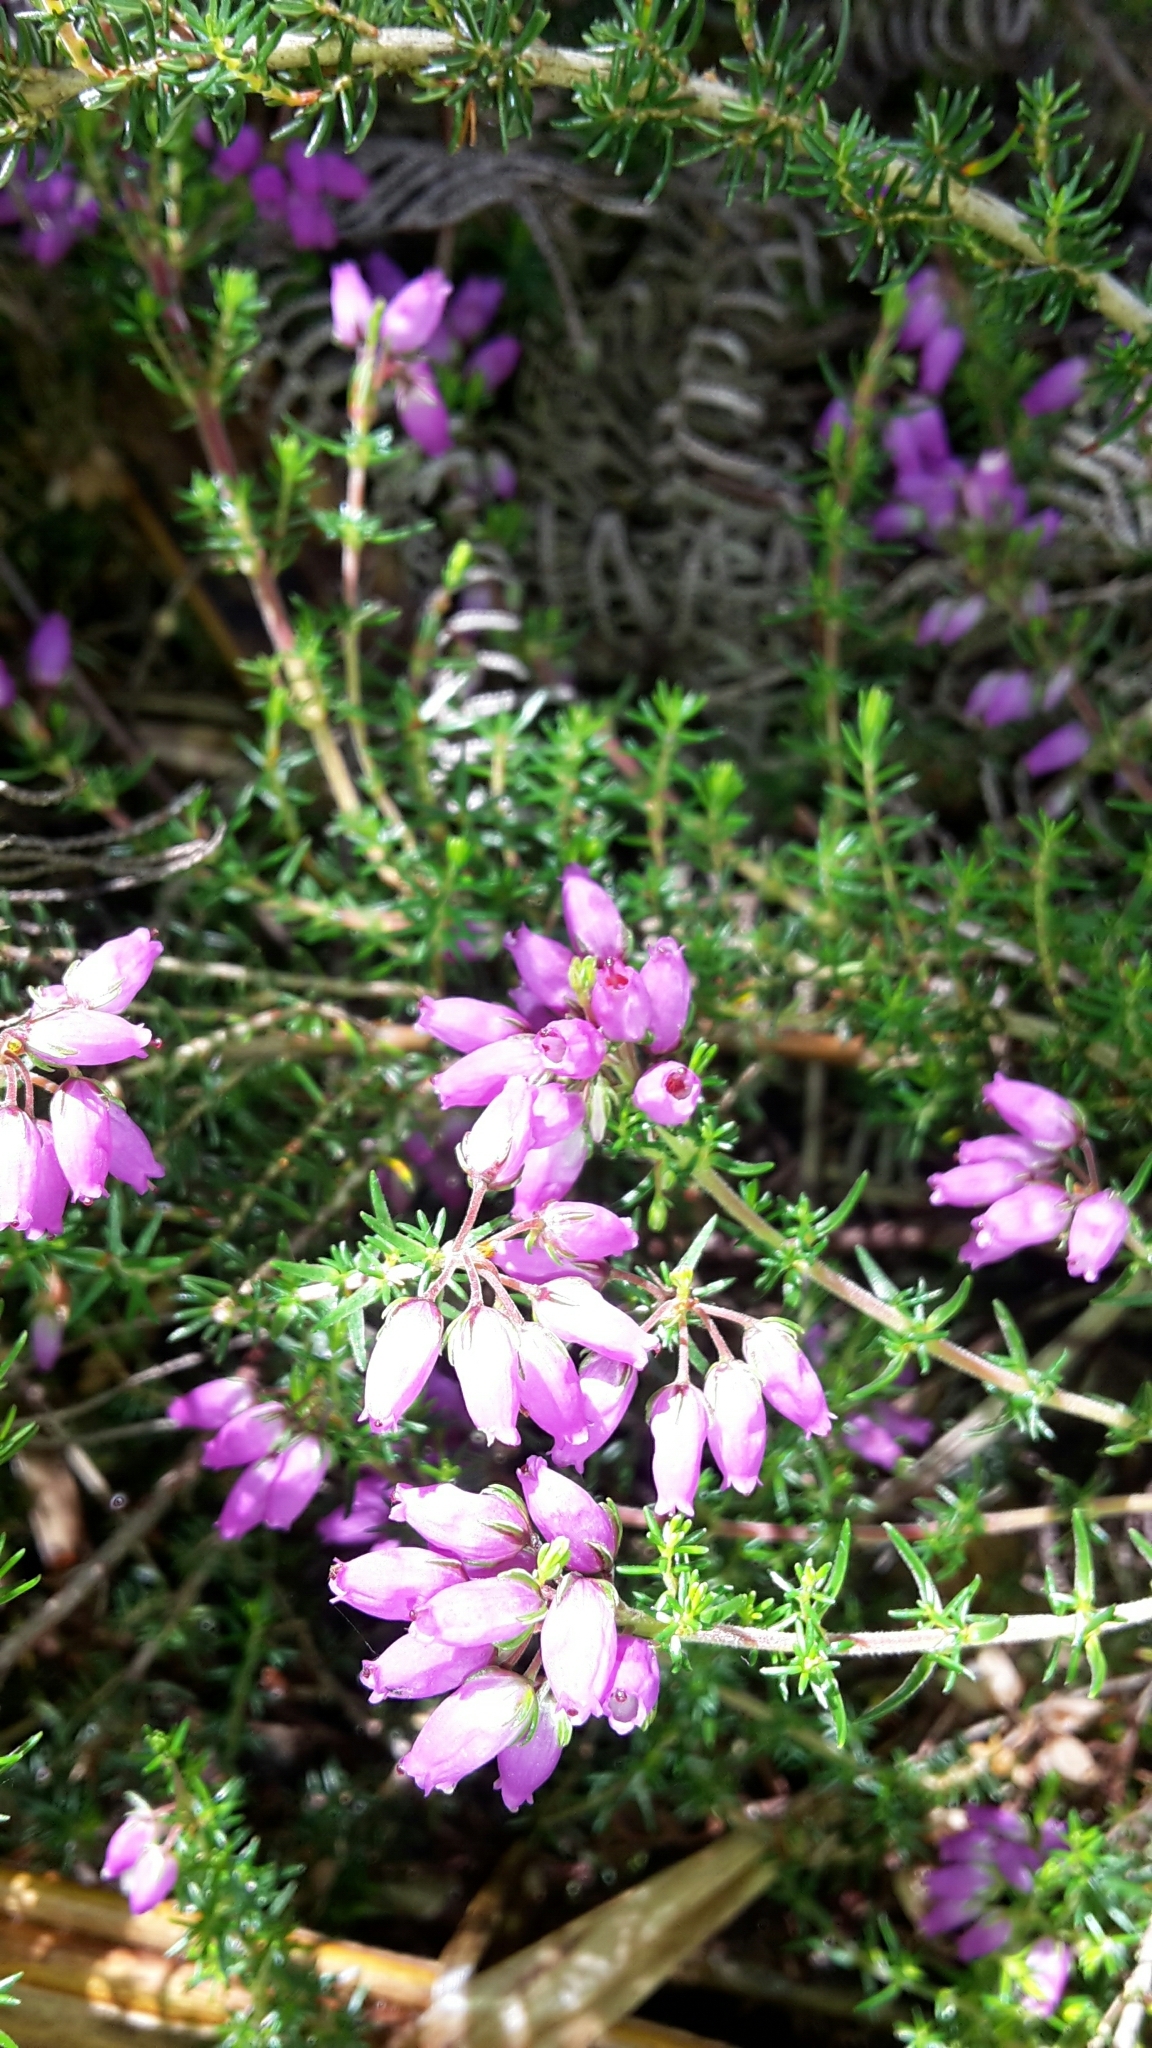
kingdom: Plantae
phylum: Tracheophyta
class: Magnoliopsida
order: Ericales
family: Ericaceae
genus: Erica
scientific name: Erica cinerea
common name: Bell heather
